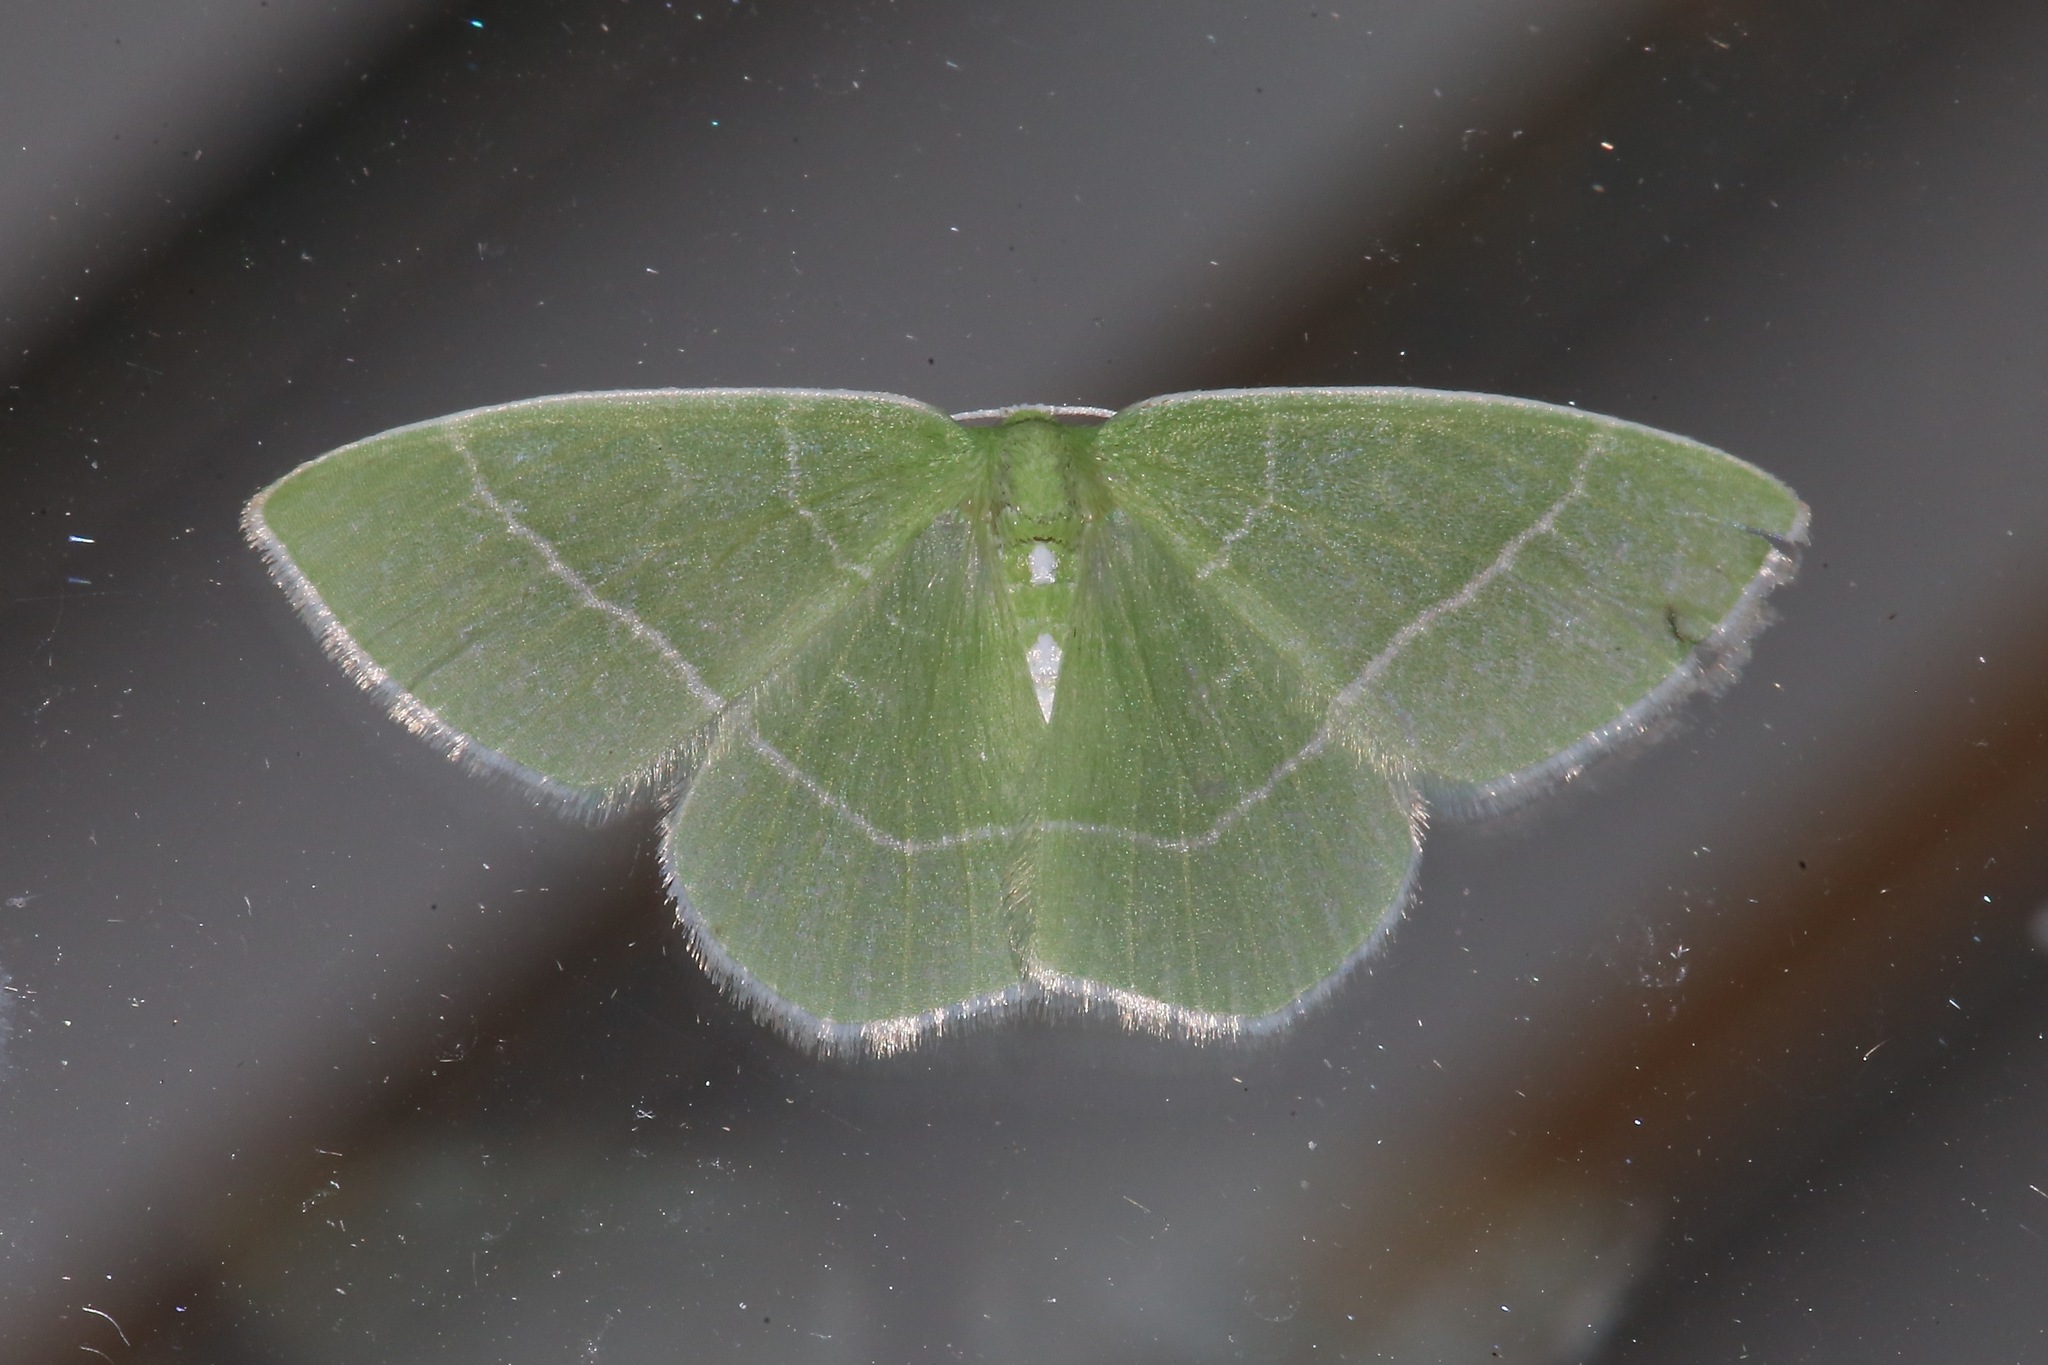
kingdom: Animalia
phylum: Arthropoda
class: Insecta
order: Lepidoptera
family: Geometridae
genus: Nemoria
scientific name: Nemoria mimosaria
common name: White-fringed emerald
